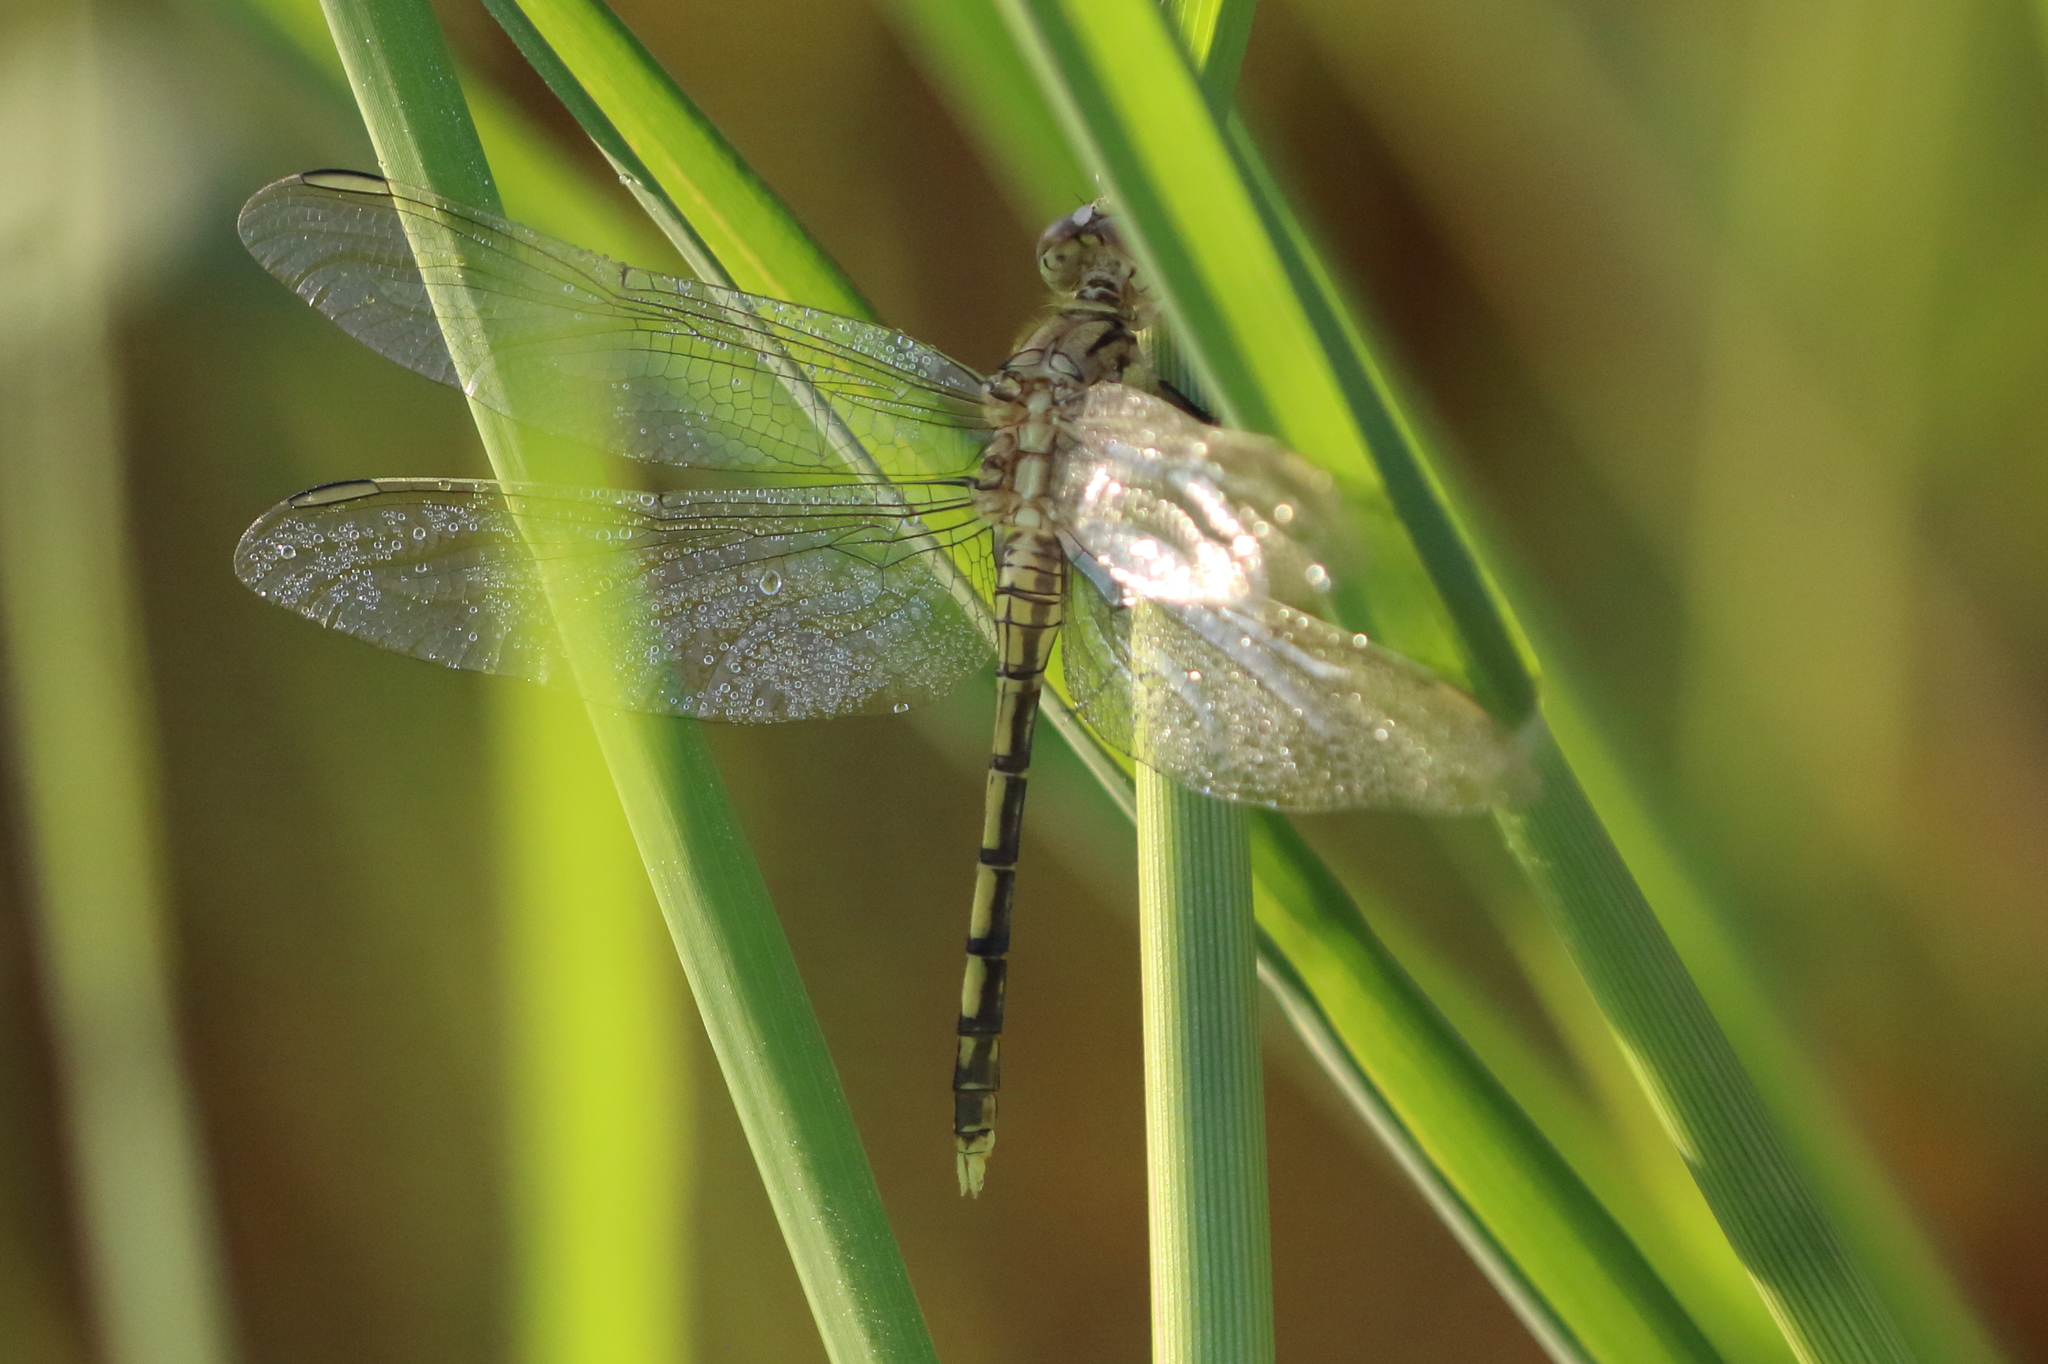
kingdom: Animalia
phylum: Arthropoda
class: Insecta
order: Odonata
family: Libellulidae
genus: Orthetrum
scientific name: Orthetrum caledonicum
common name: Blue skimmer
